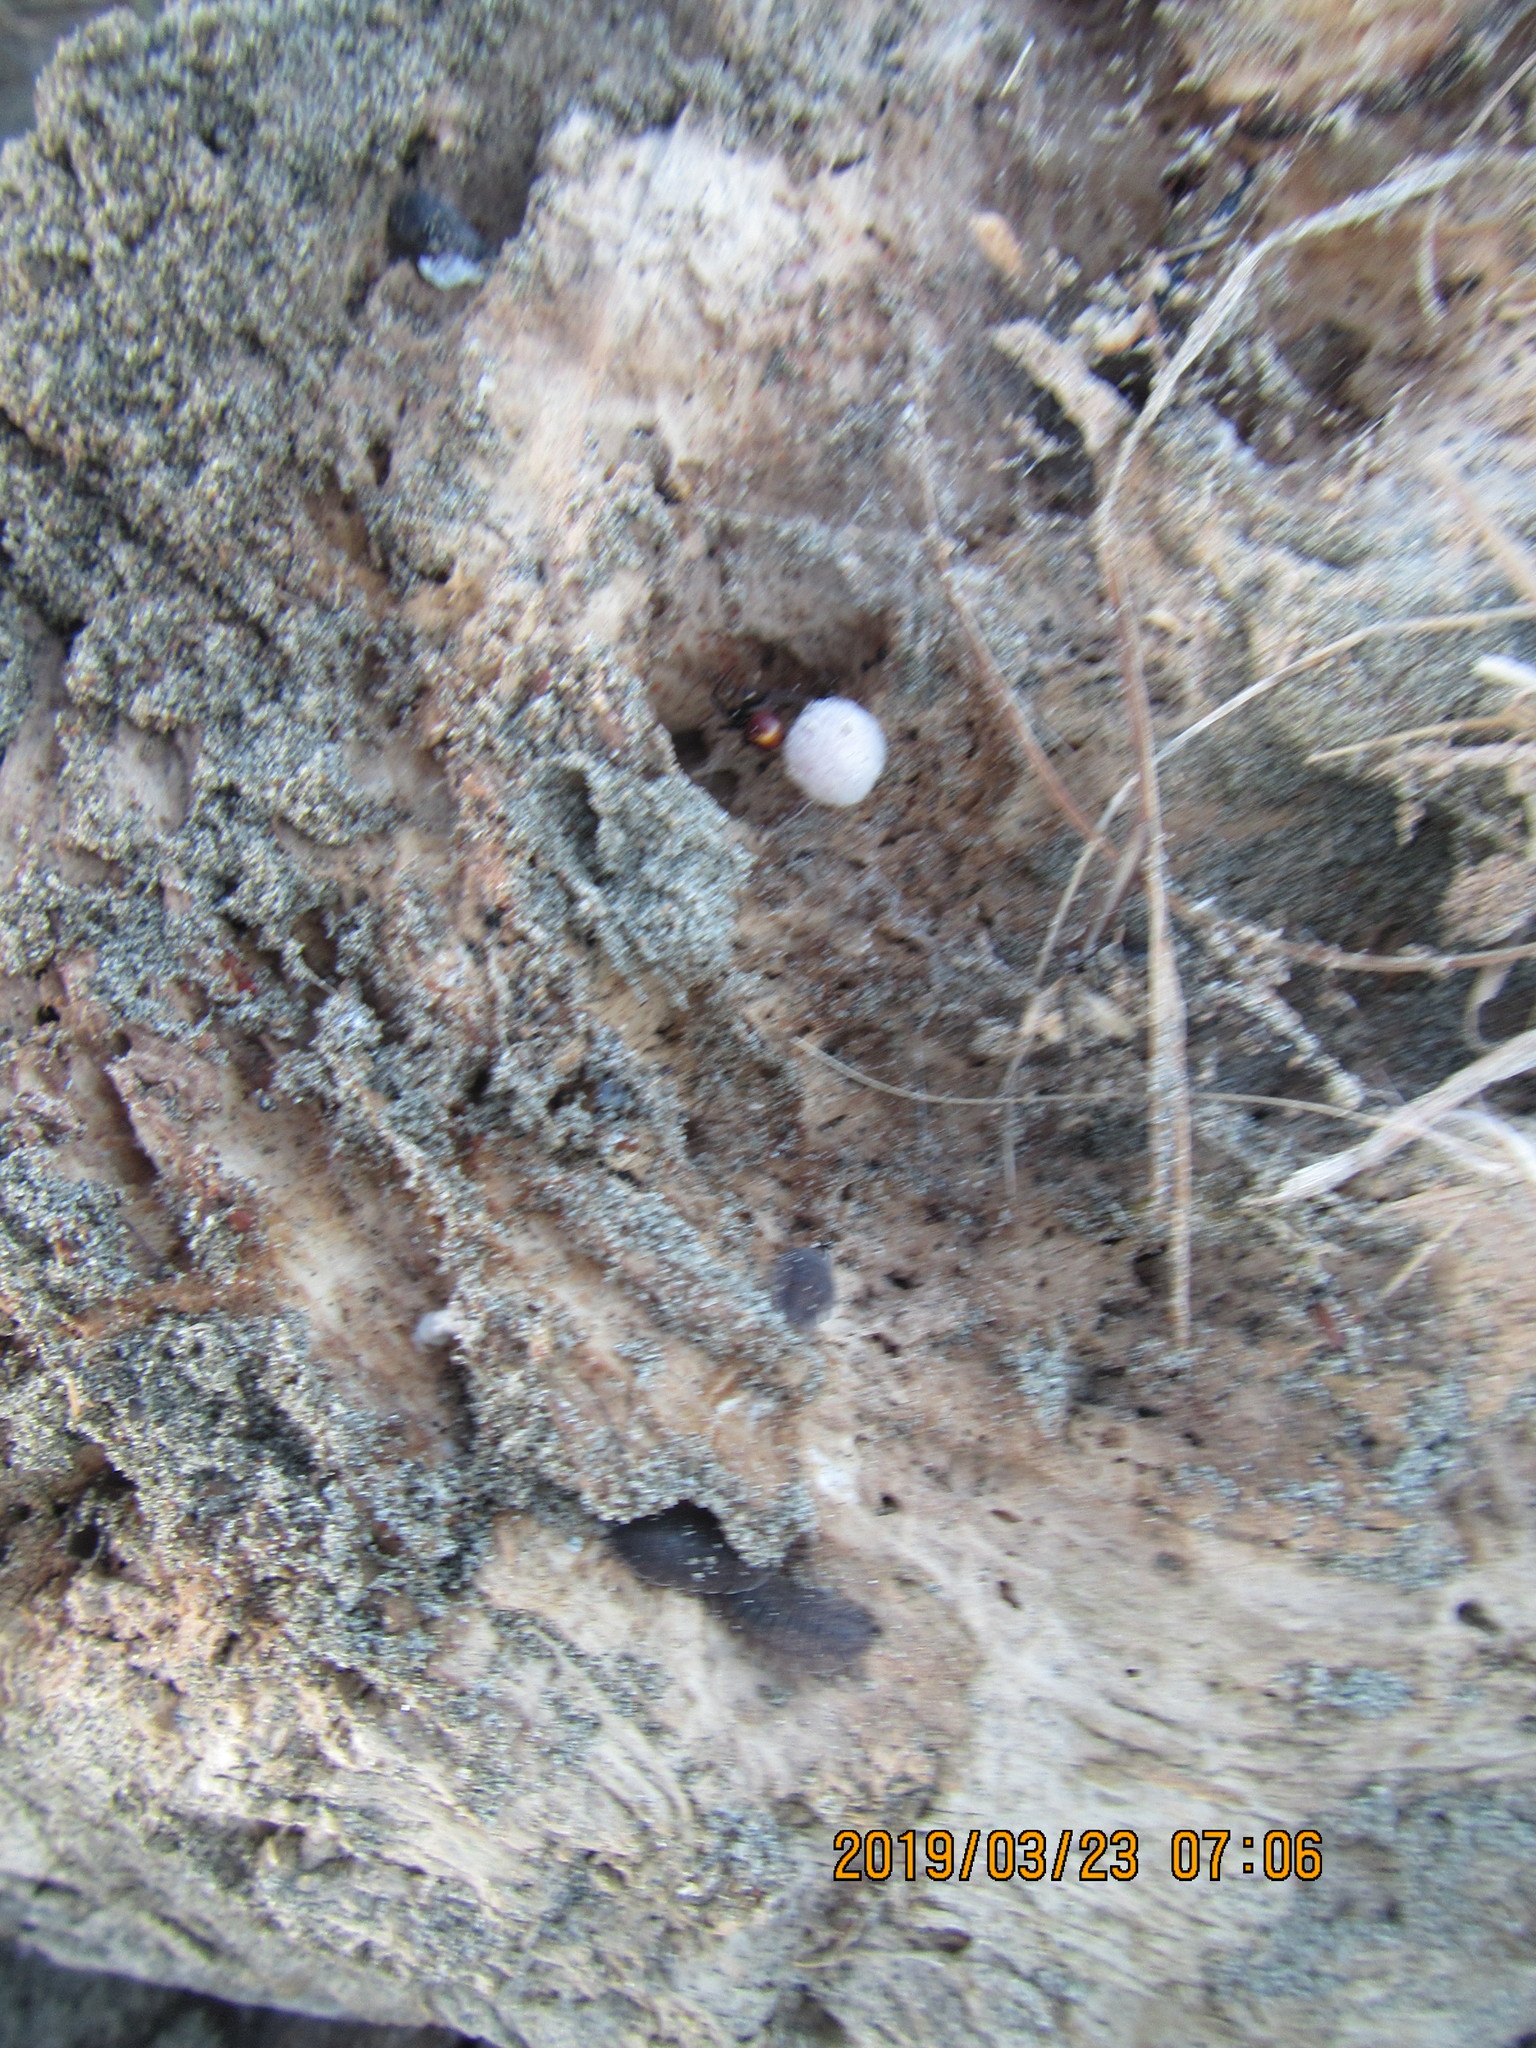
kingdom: Animalia
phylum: Arthropoda
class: Arachnida
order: Araneae
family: Theridiidae
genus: Steatoda
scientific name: Steatoda capensis
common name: Cobweb weaver
